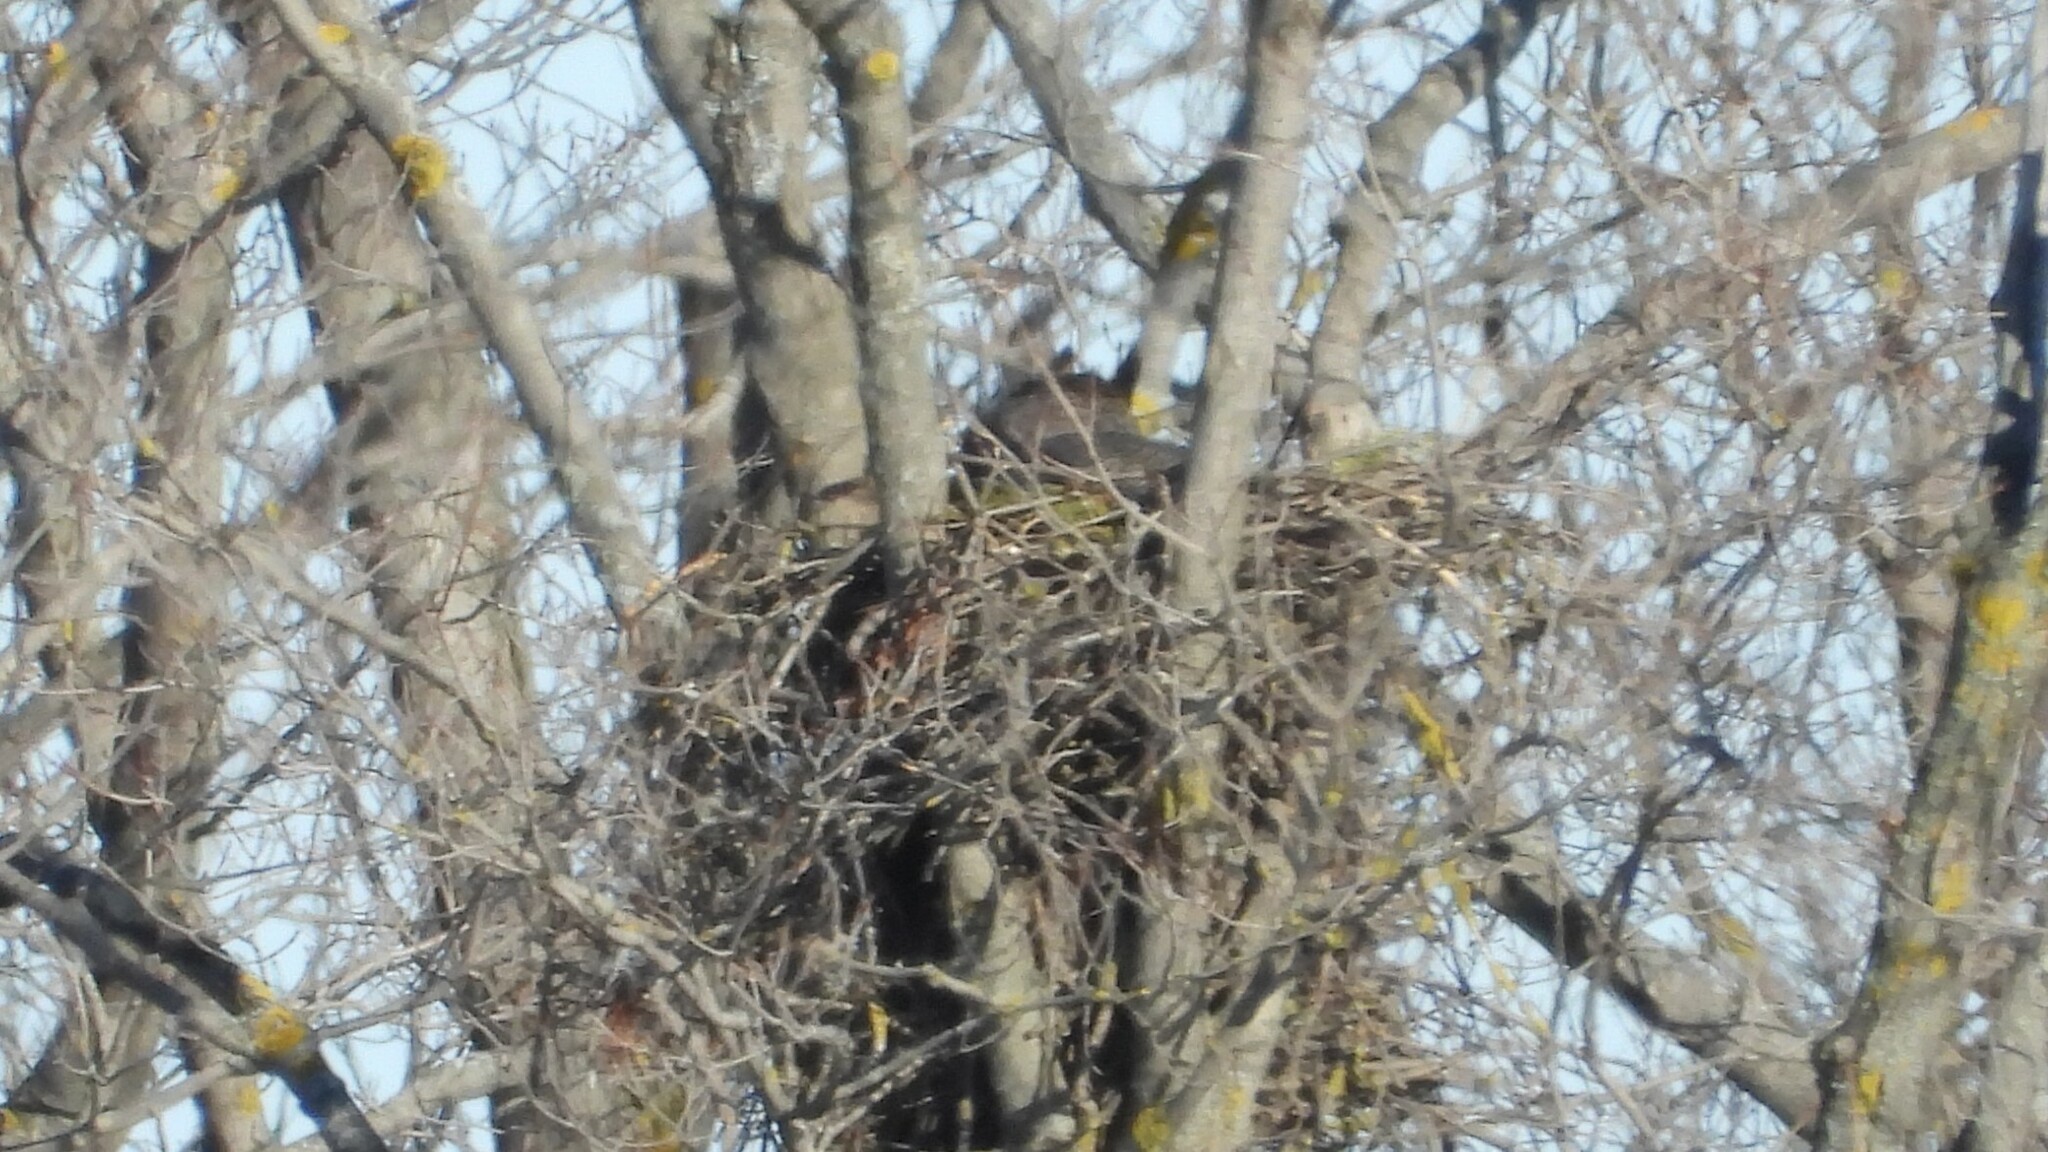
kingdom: Animalia
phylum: Chordata
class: Aves
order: Strigiformes
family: Strigidae
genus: Bubo
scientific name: Bubo virginianus
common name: Great horned owl
